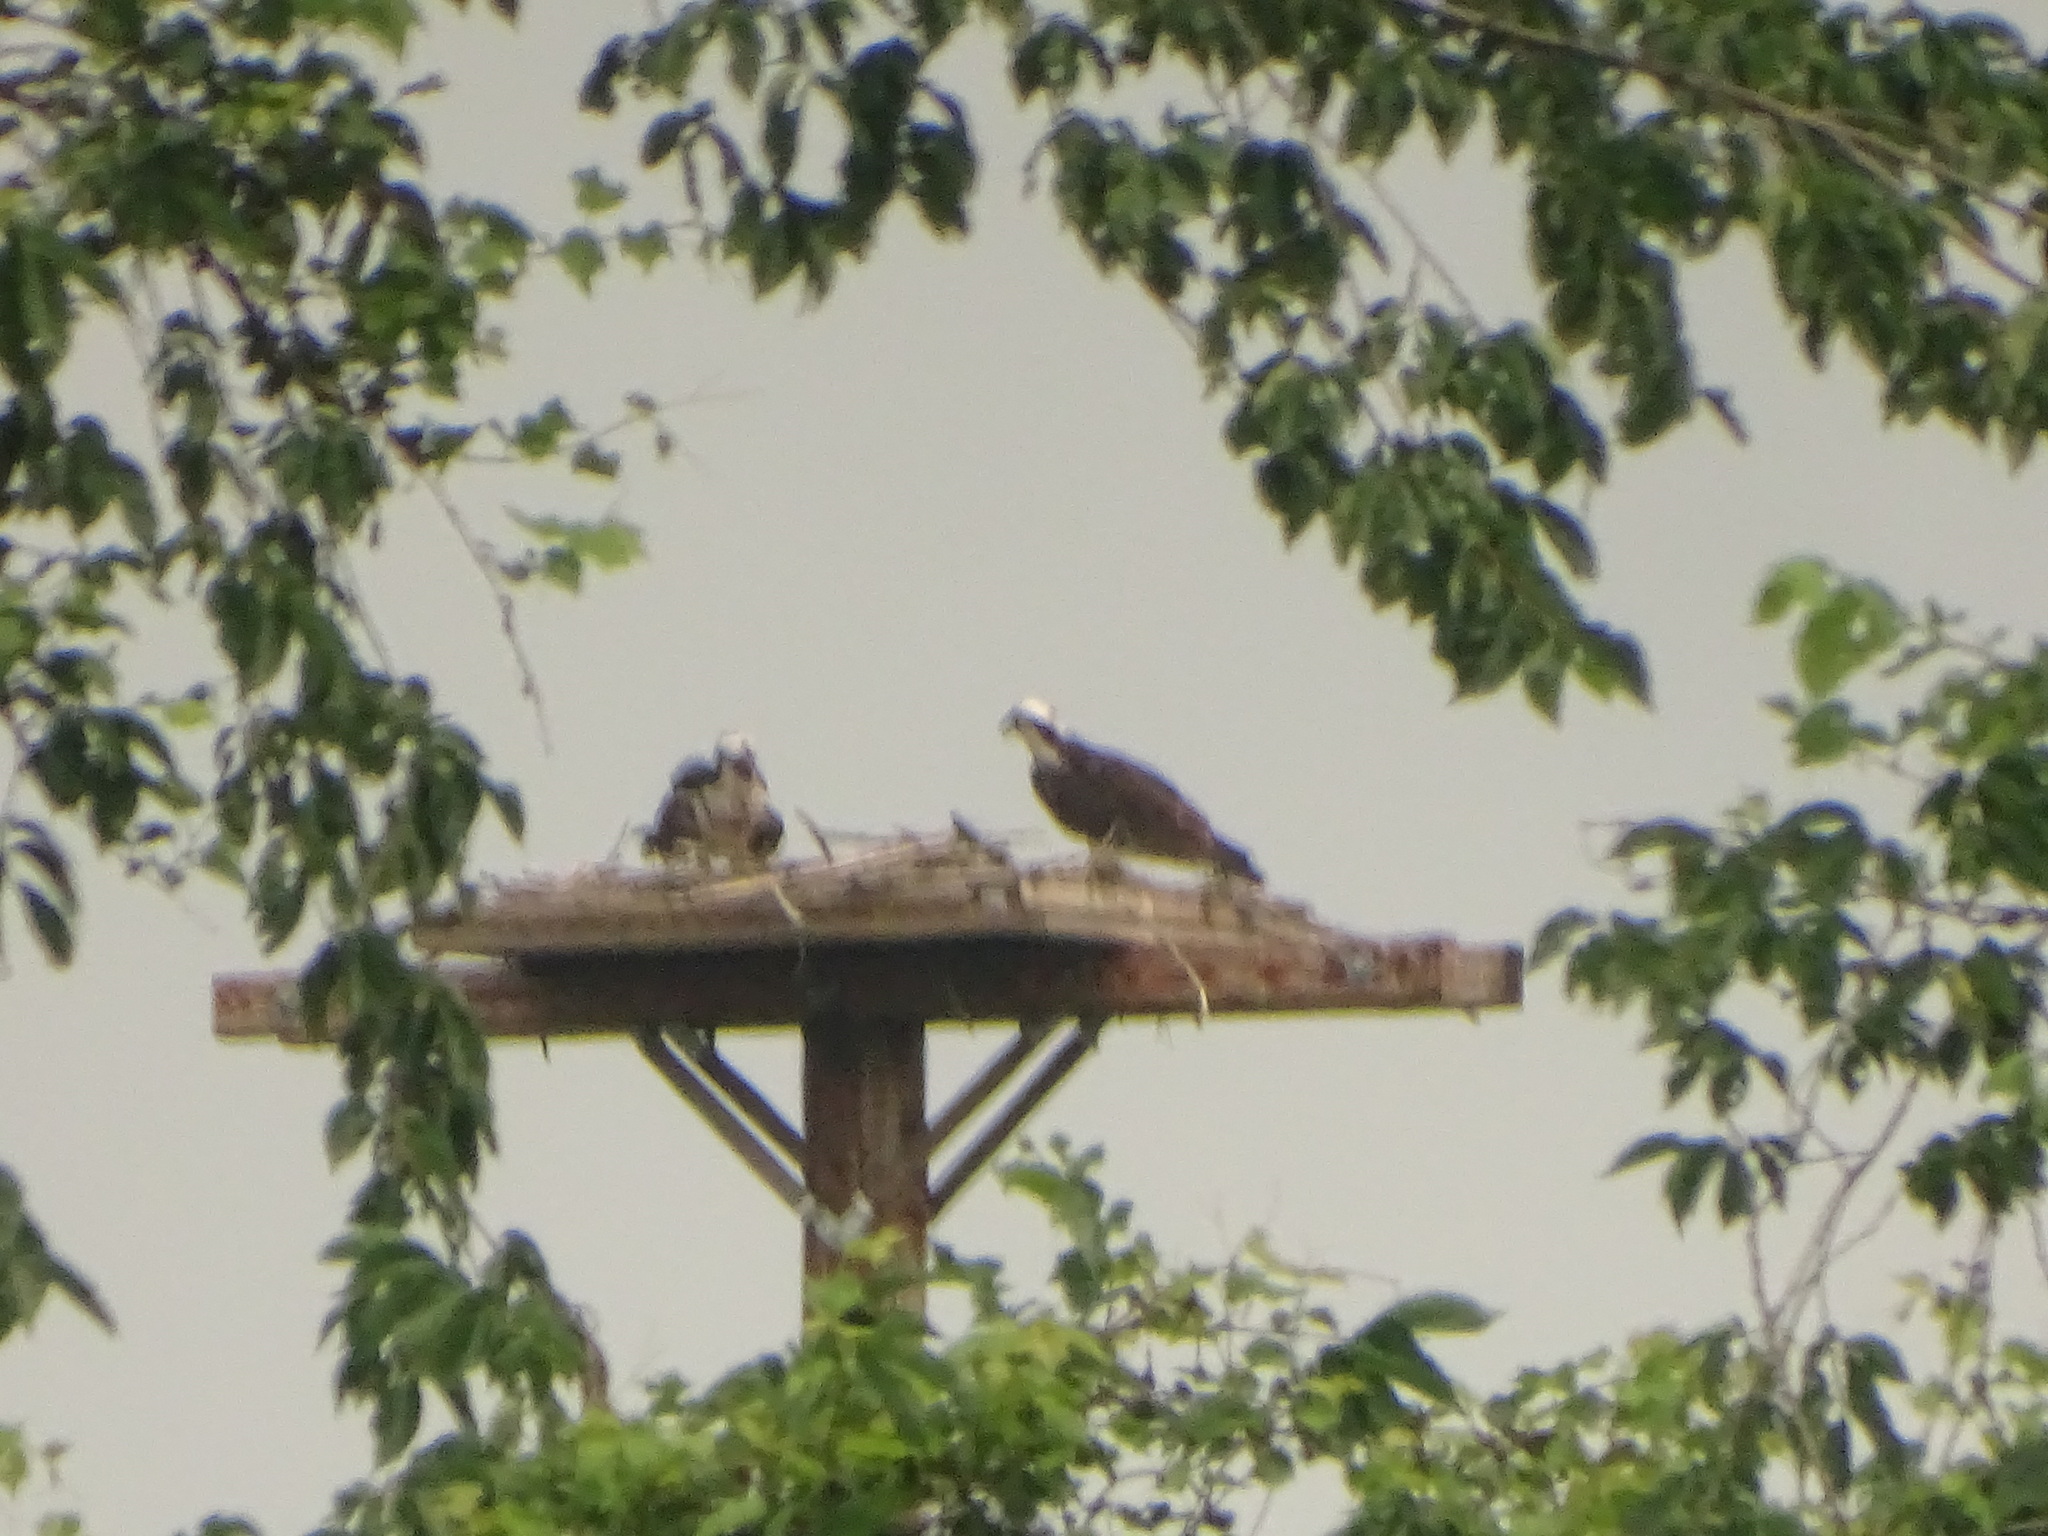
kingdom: Animalia
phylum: Chordata
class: Aves
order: Accipitriformes
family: Pandionidae
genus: Pandion
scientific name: Pandion haliaetus
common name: Osprey
